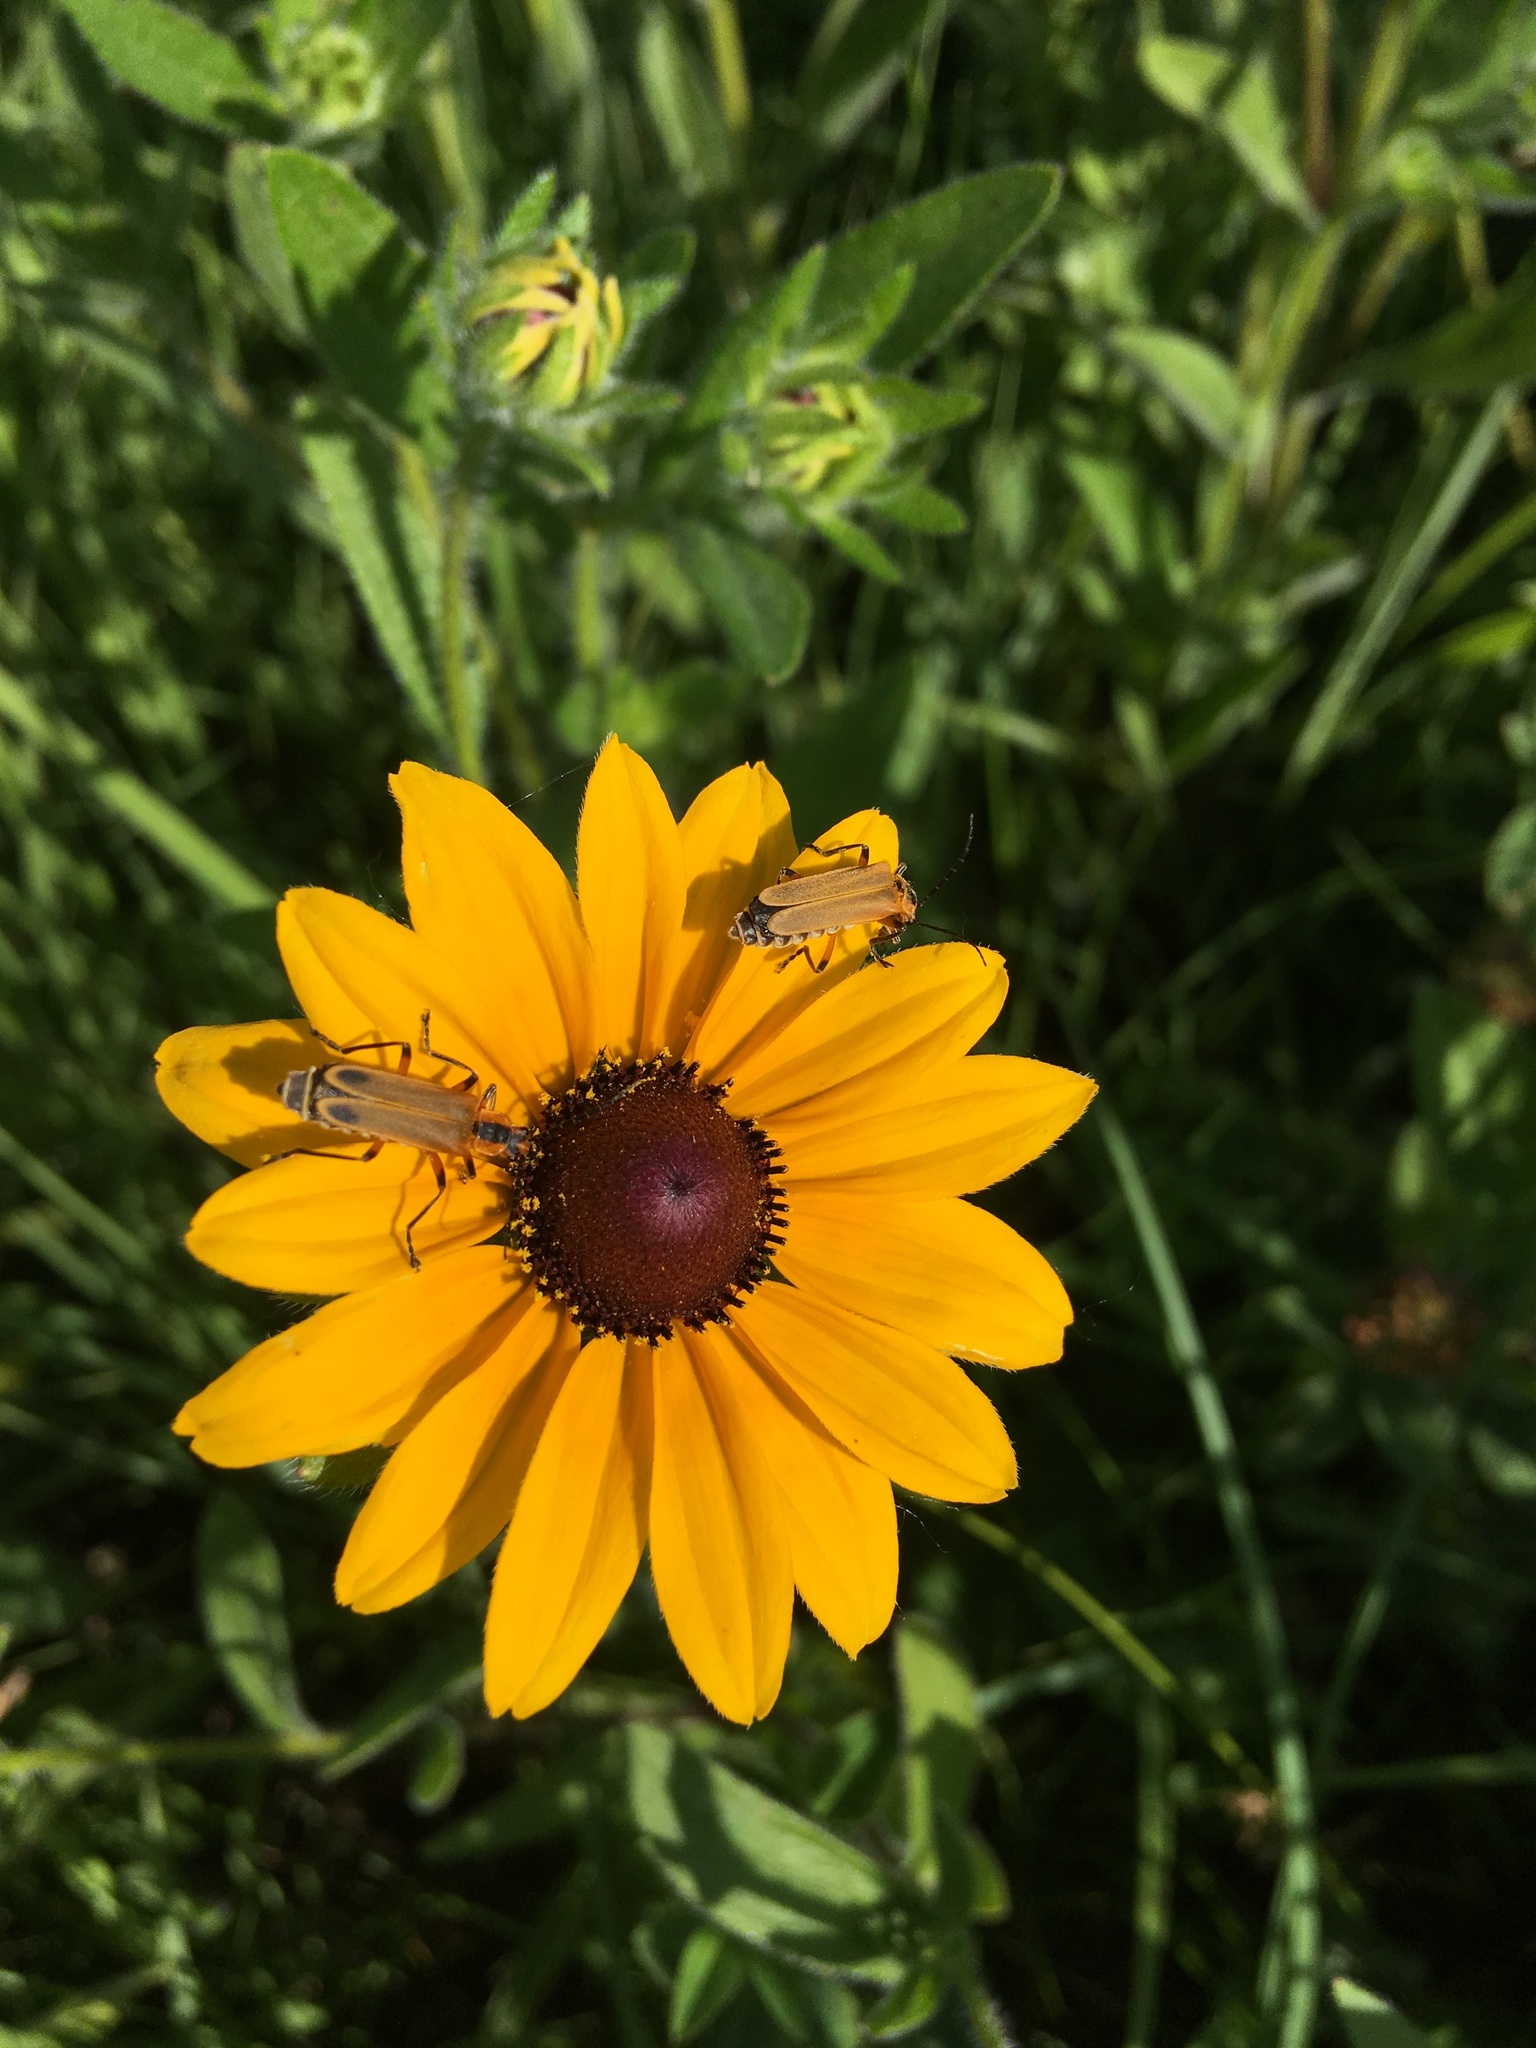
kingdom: Animalia
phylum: Arthropoda
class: Insecta
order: Coleoptera
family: Cantharidae
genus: Chauliognathus
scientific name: Chauliognathus marginatus
